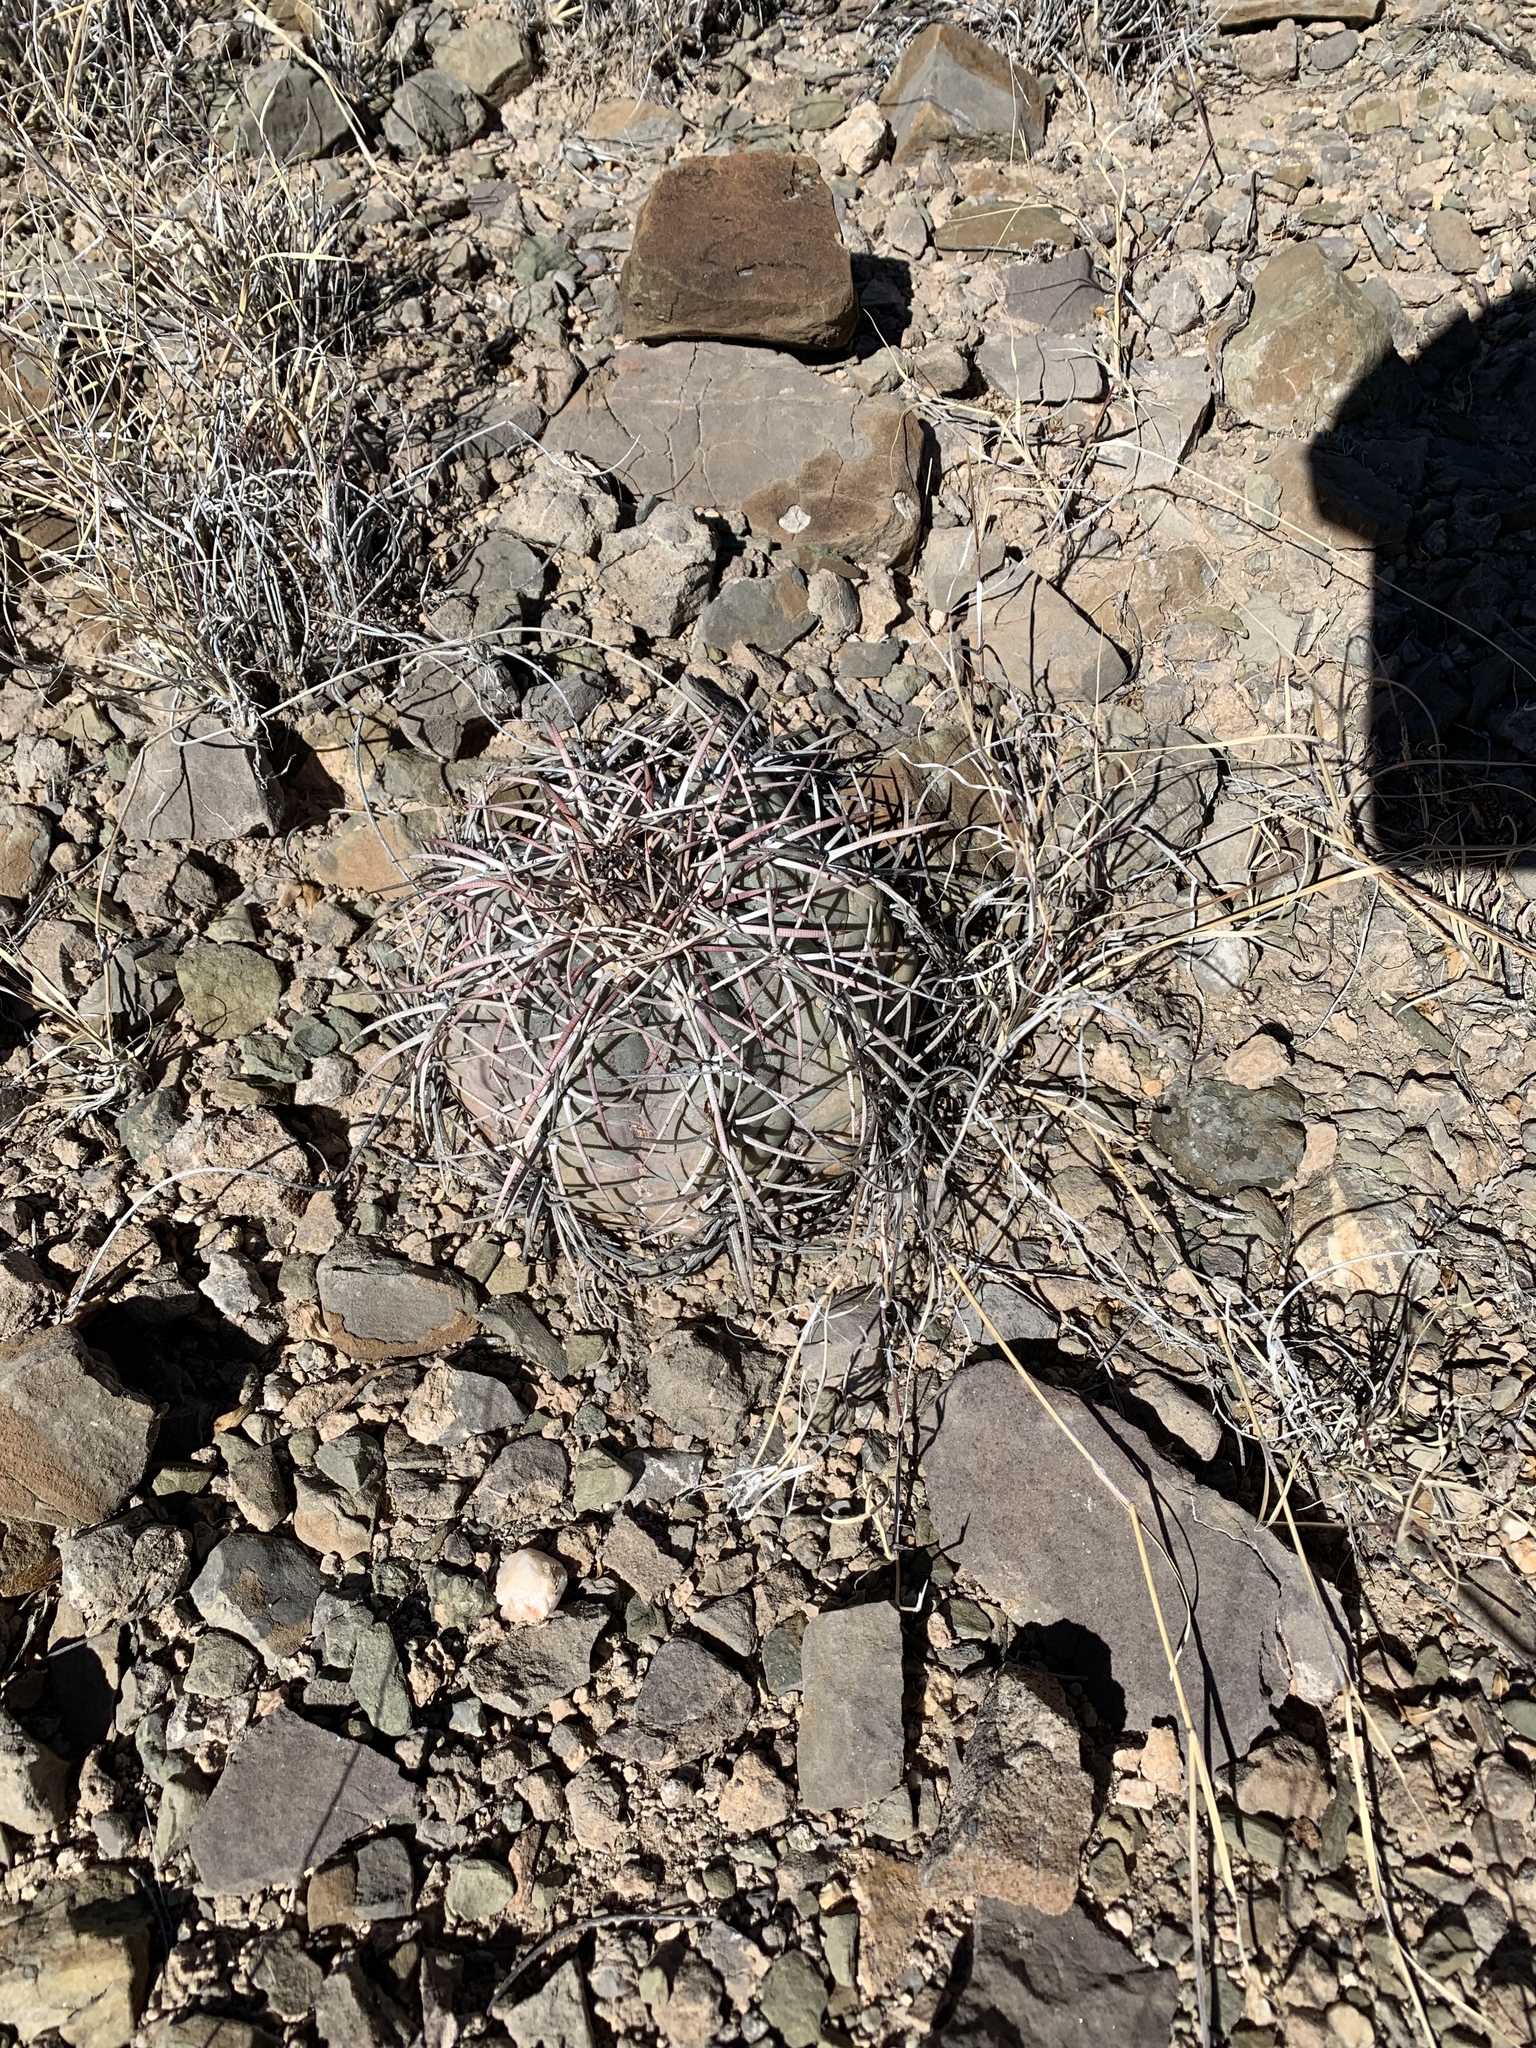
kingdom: Plantae
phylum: Tracheophyta
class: Magnoliopsida
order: Caryophyllales
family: Cactaceae
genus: Echinocactus
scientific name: Echinocactus horizonthalonius
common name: Devilshead
